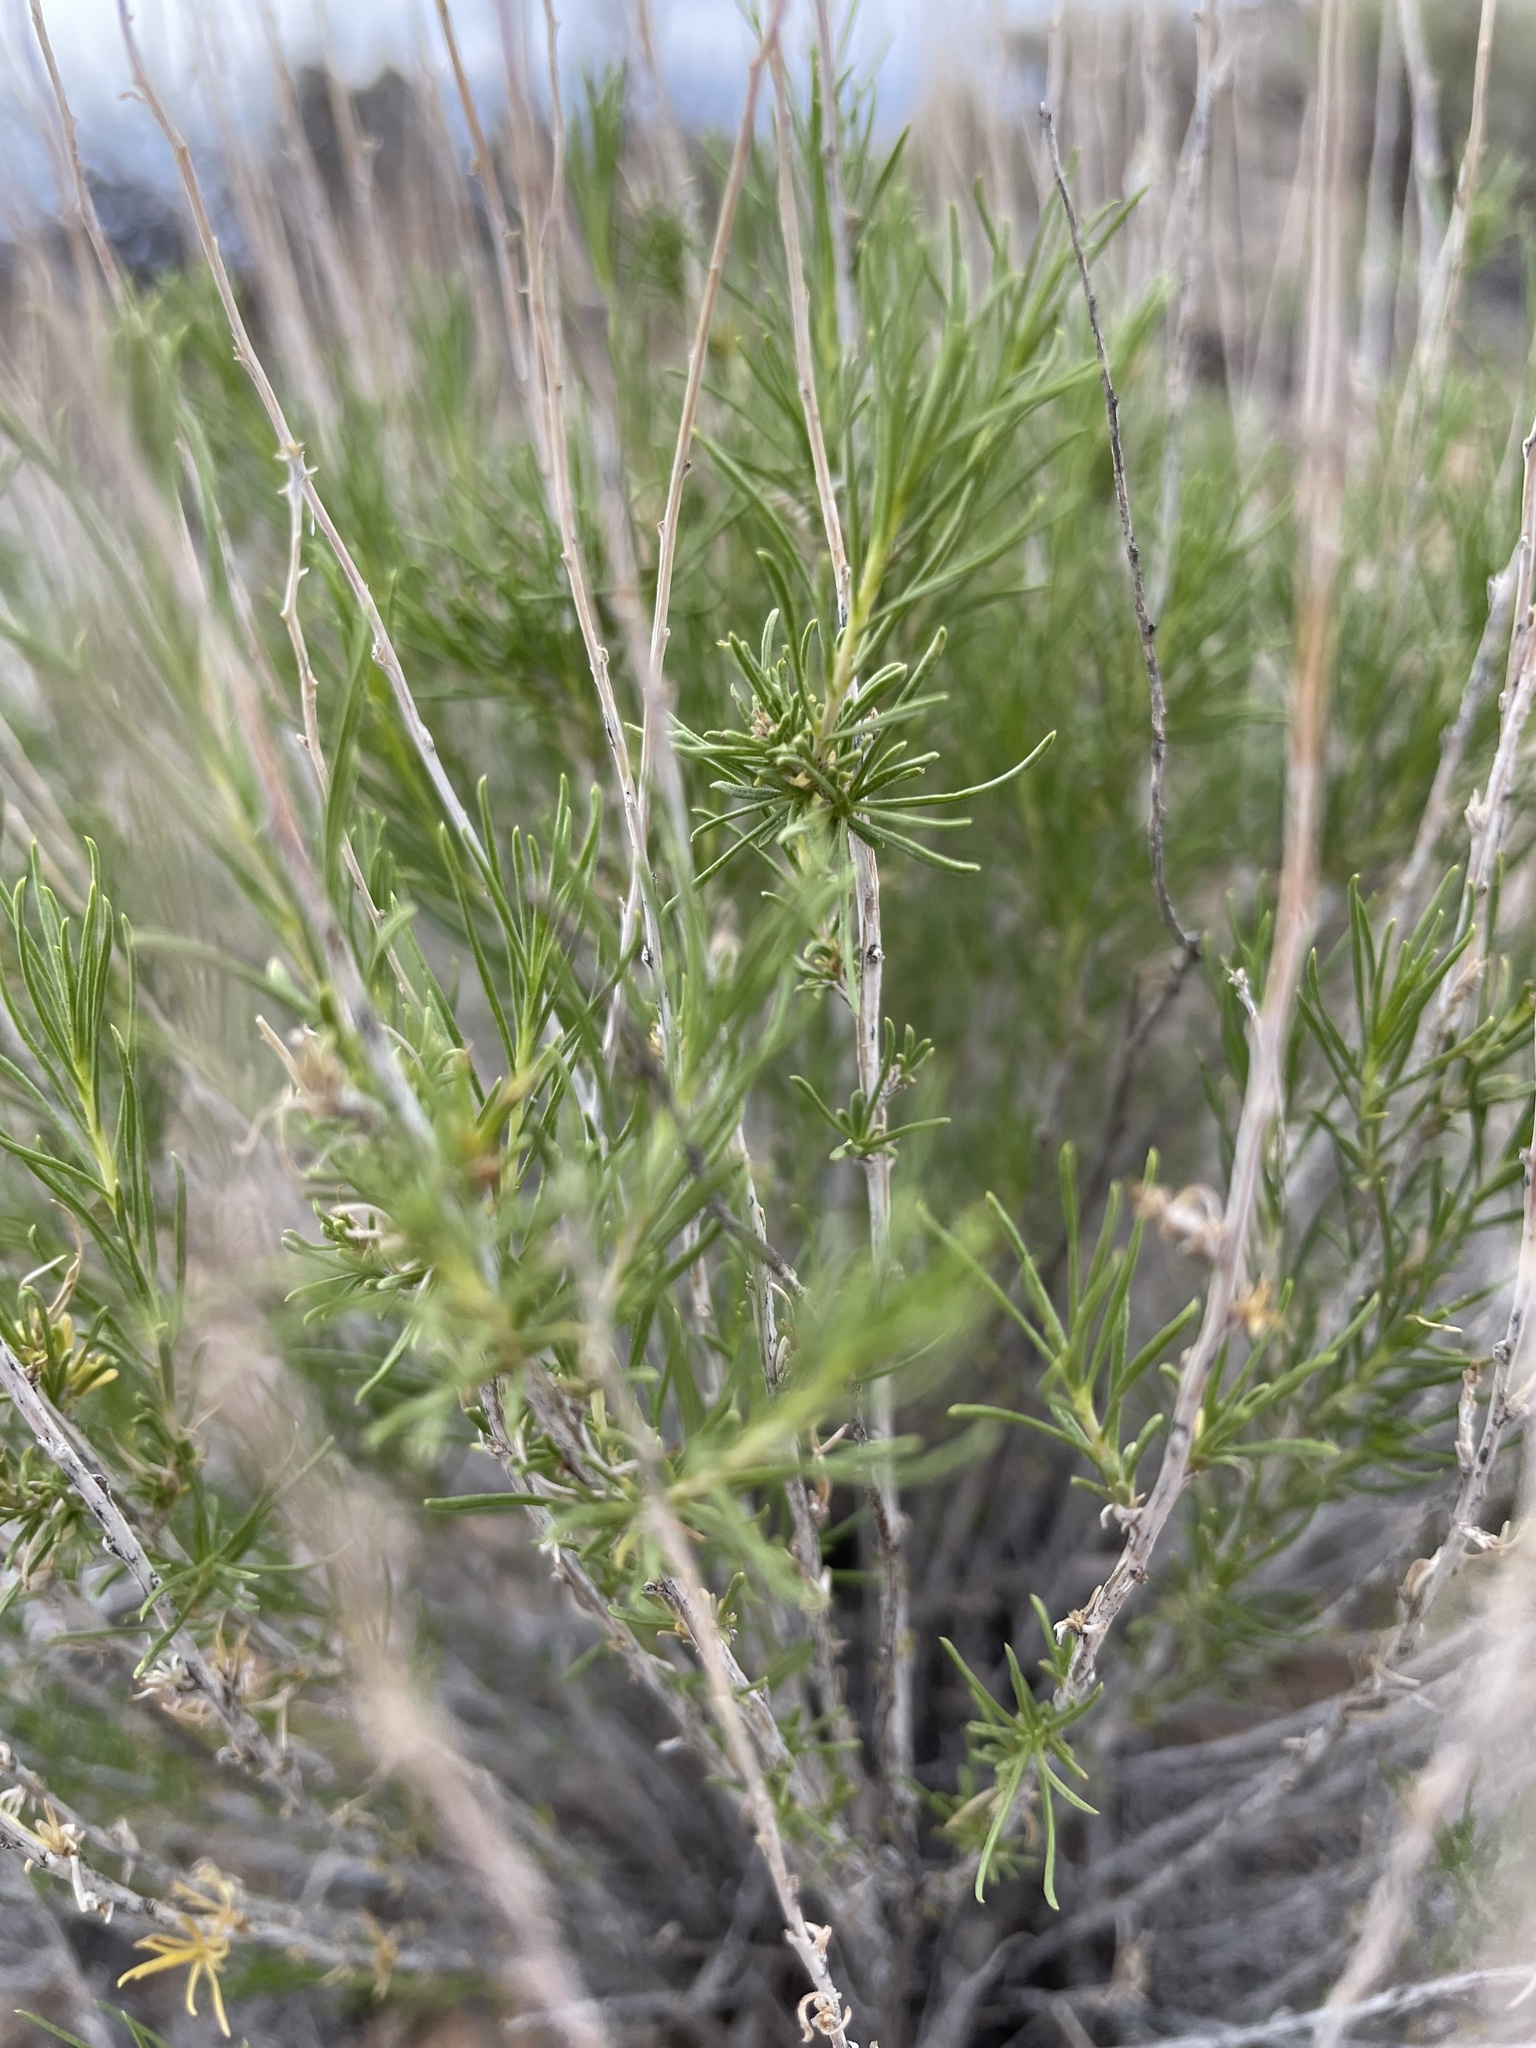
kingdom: Plantae
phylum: Tracheophyta
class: Magnoliopsida
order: Asterales
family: Asteraceae
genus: Gutierrezia
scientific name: Gutierrezia sarothrae
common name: Broom snakeweed
